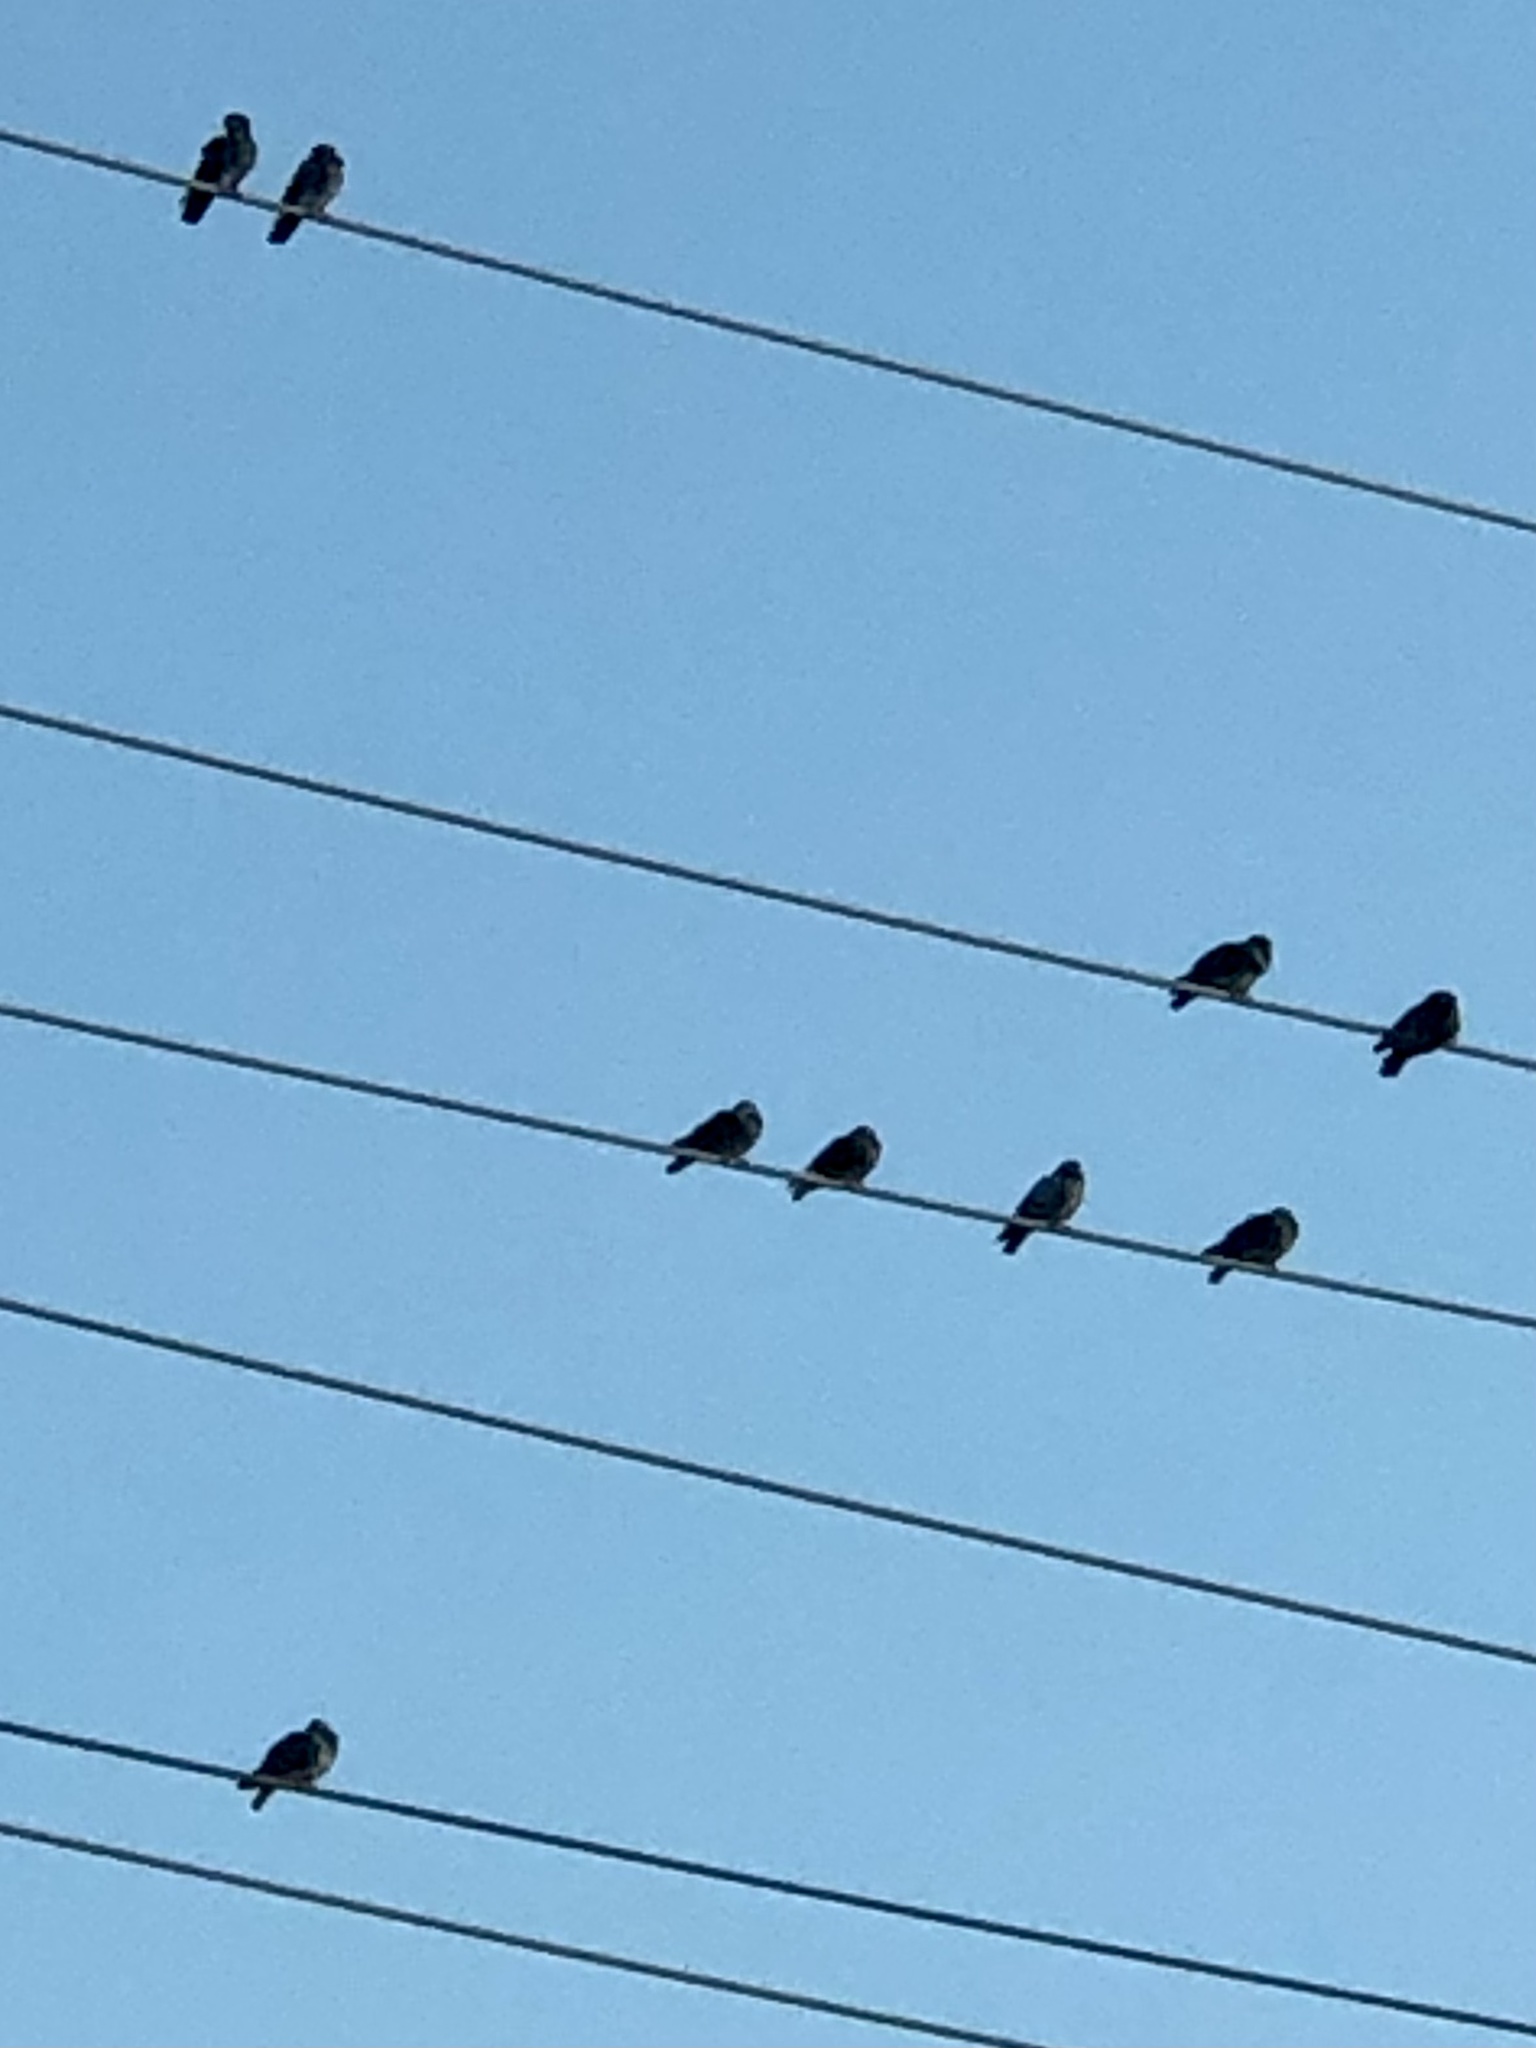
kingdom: Animalia
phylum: Chordata
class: Aves
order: Columbiformes
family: Columbidae
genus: Columba
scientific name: Columba livia
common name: Rock pigeon
